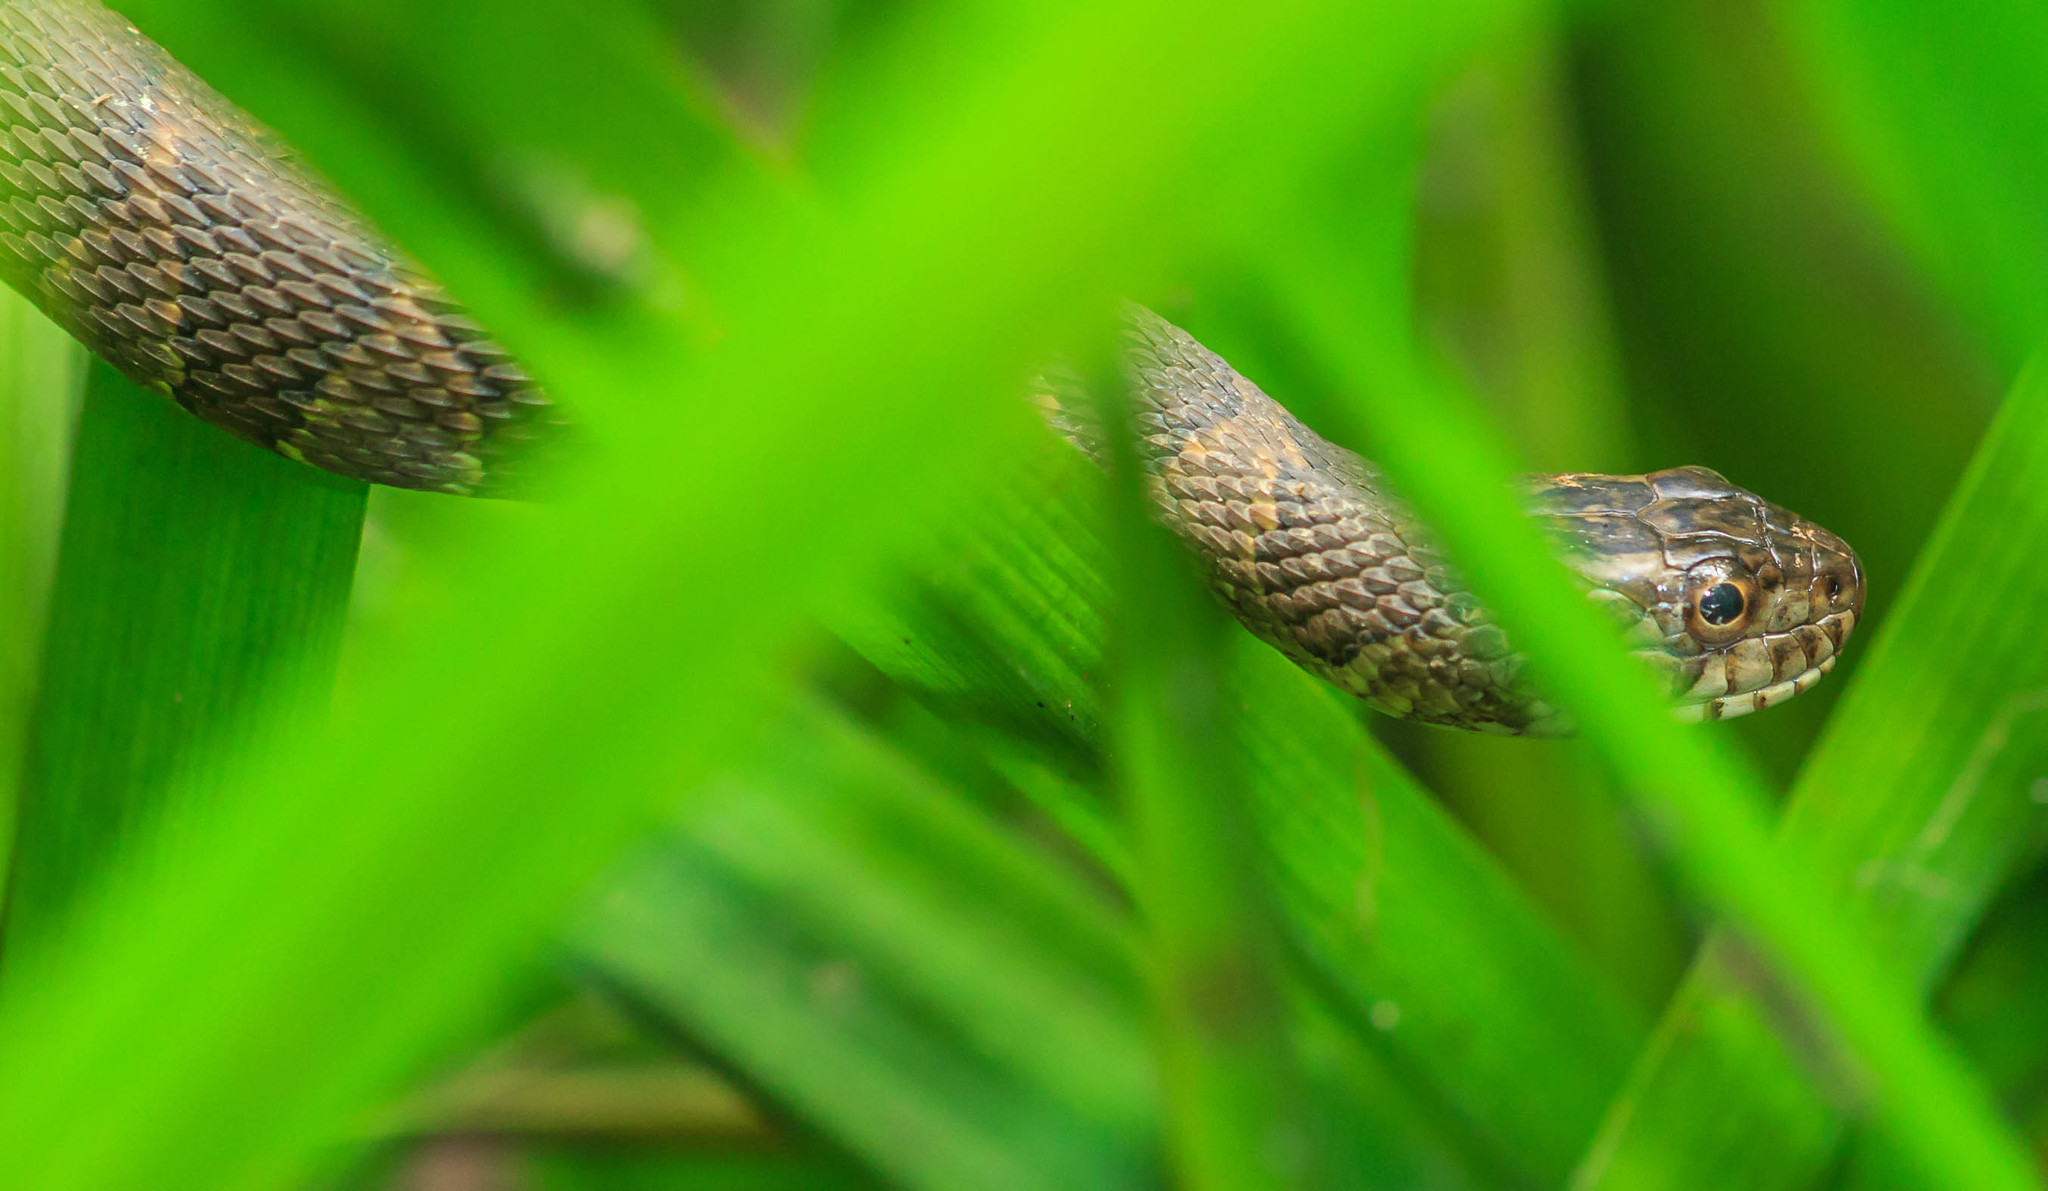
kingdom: Animalia
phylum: Chordata
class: Squamata
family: Colubridae
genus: Nerodia
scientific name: Nerodia sipedon
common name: Northern water snake
